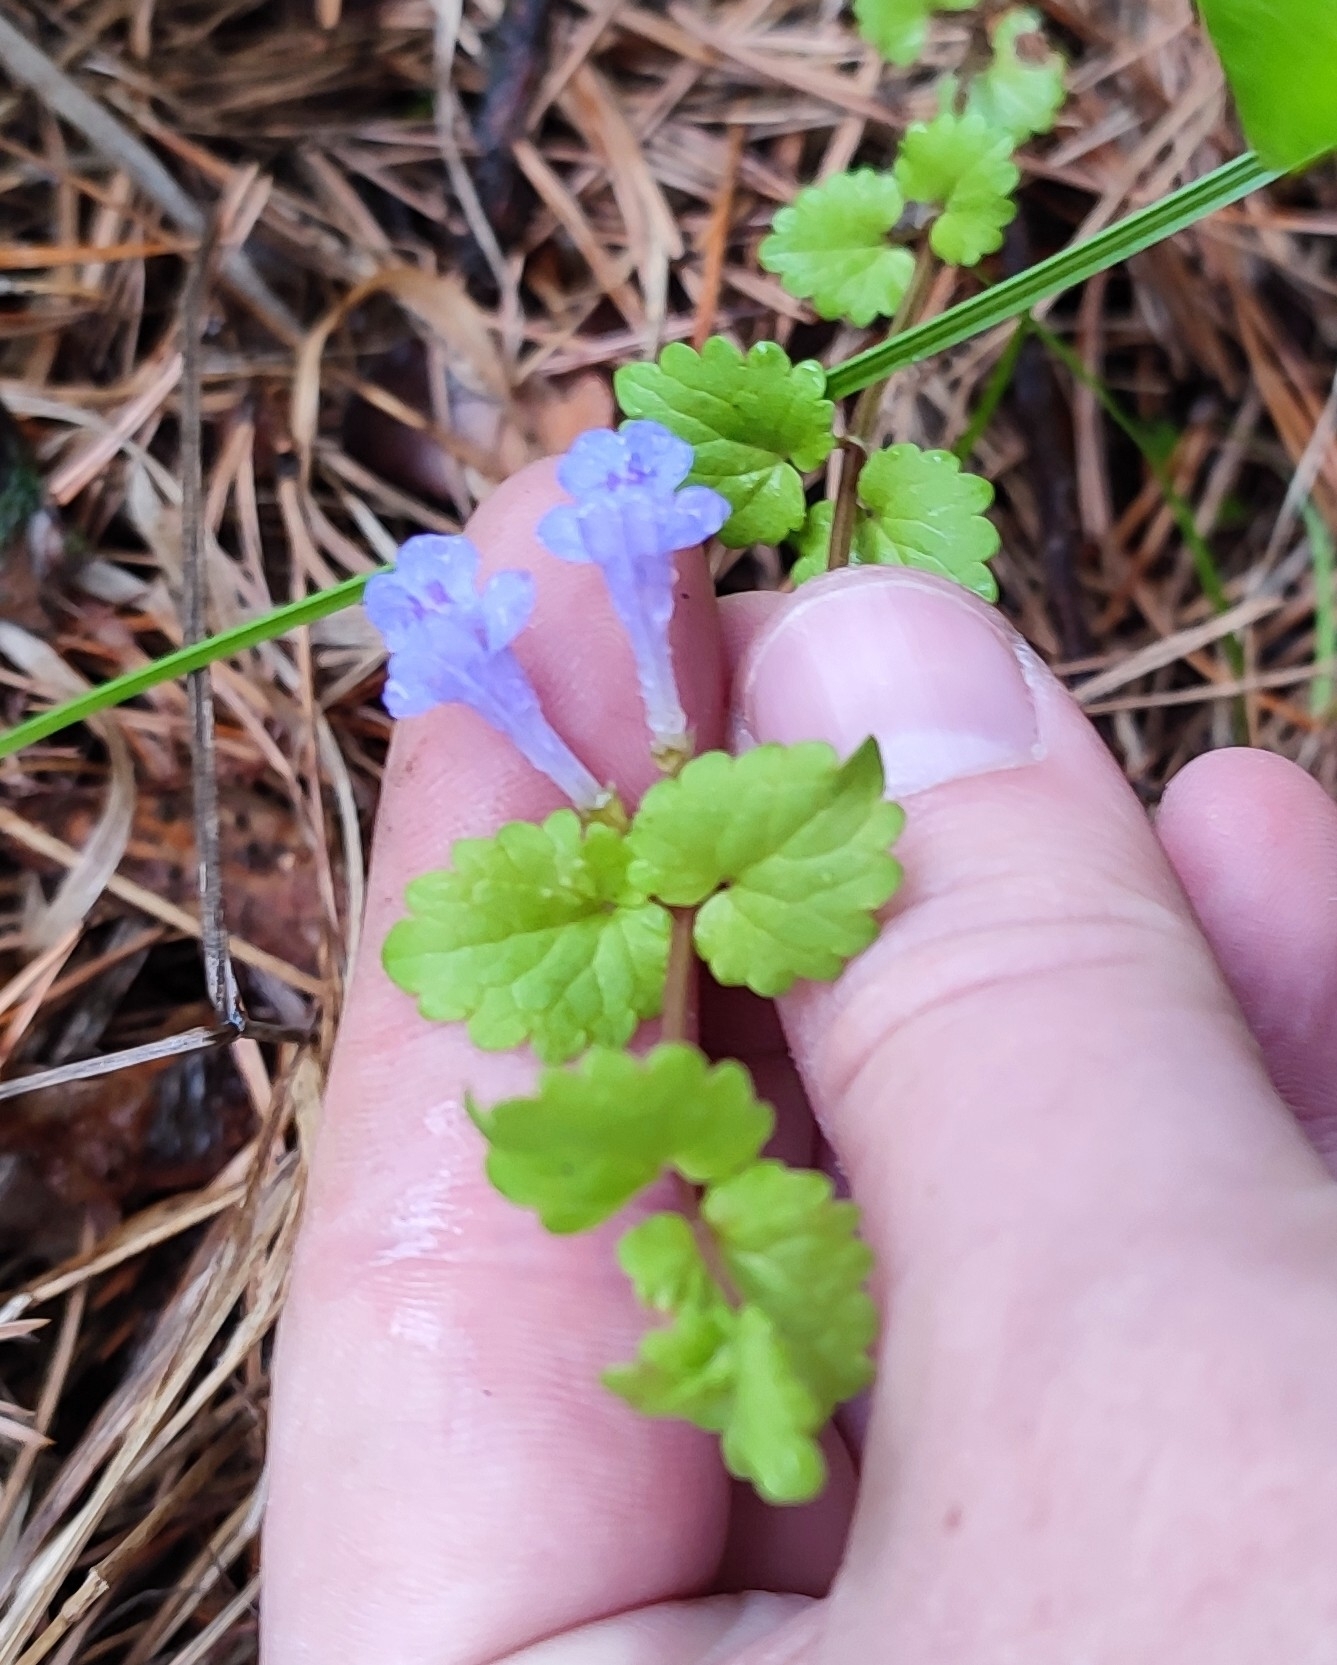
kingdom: Plantae
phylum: Tracheophyta
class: Magnoliopsida
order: Lamiales
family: Lamiaceae
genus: Glechoma
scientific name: Glechoma hederacea
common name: Ground ivy
